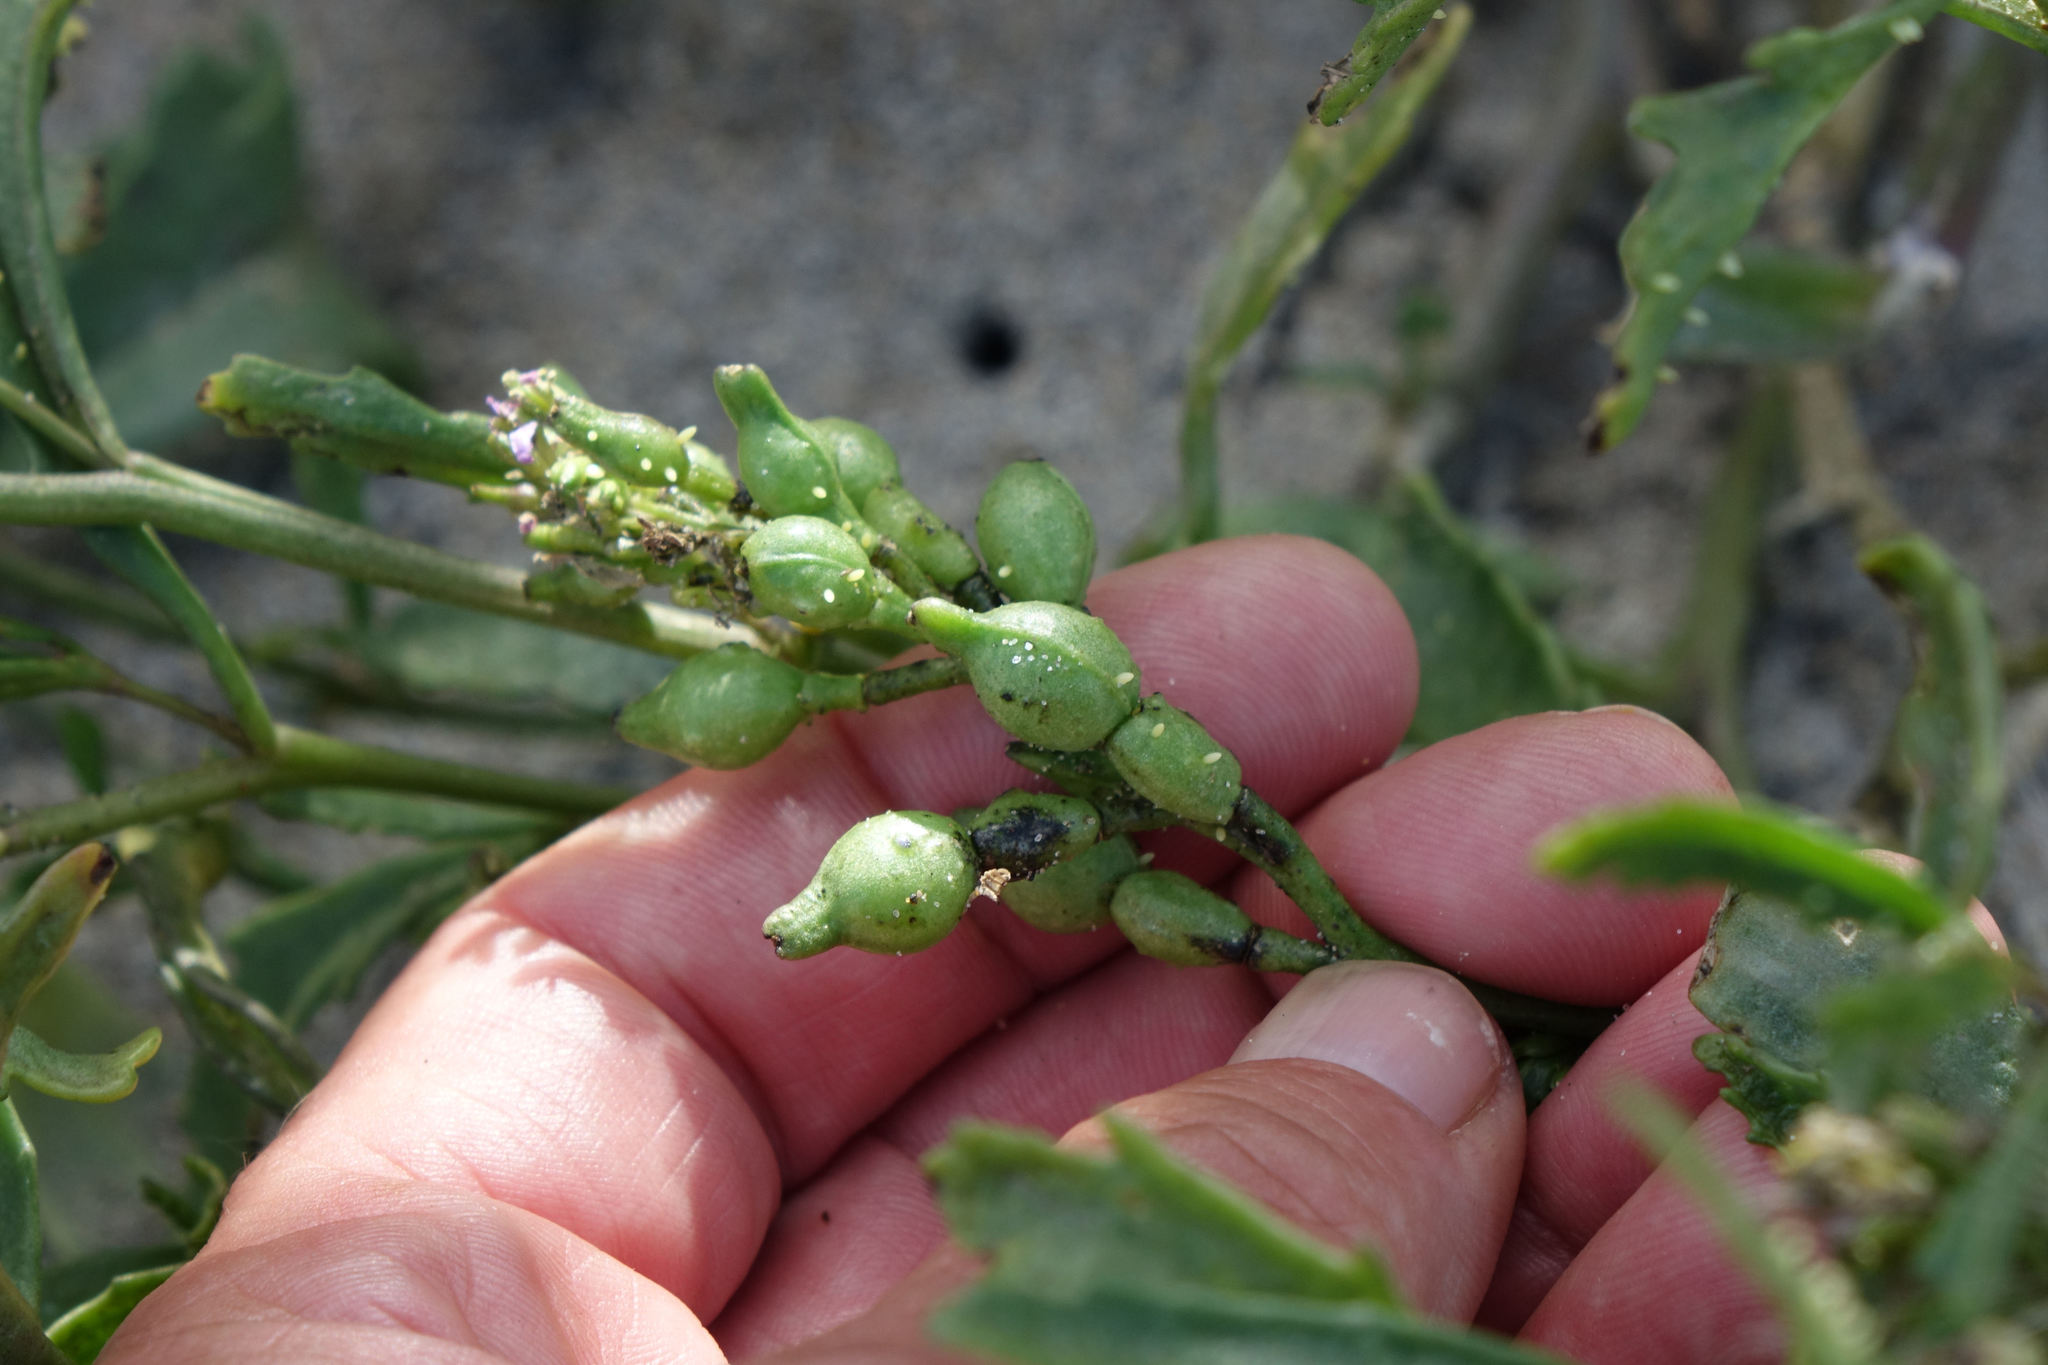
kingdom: Plantae
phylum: Tracheophyta
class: Magnoliopsida
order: Brassicales
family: Brassicaceae
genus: Cakile
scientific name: Cakile edentula
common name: American sea rocket
